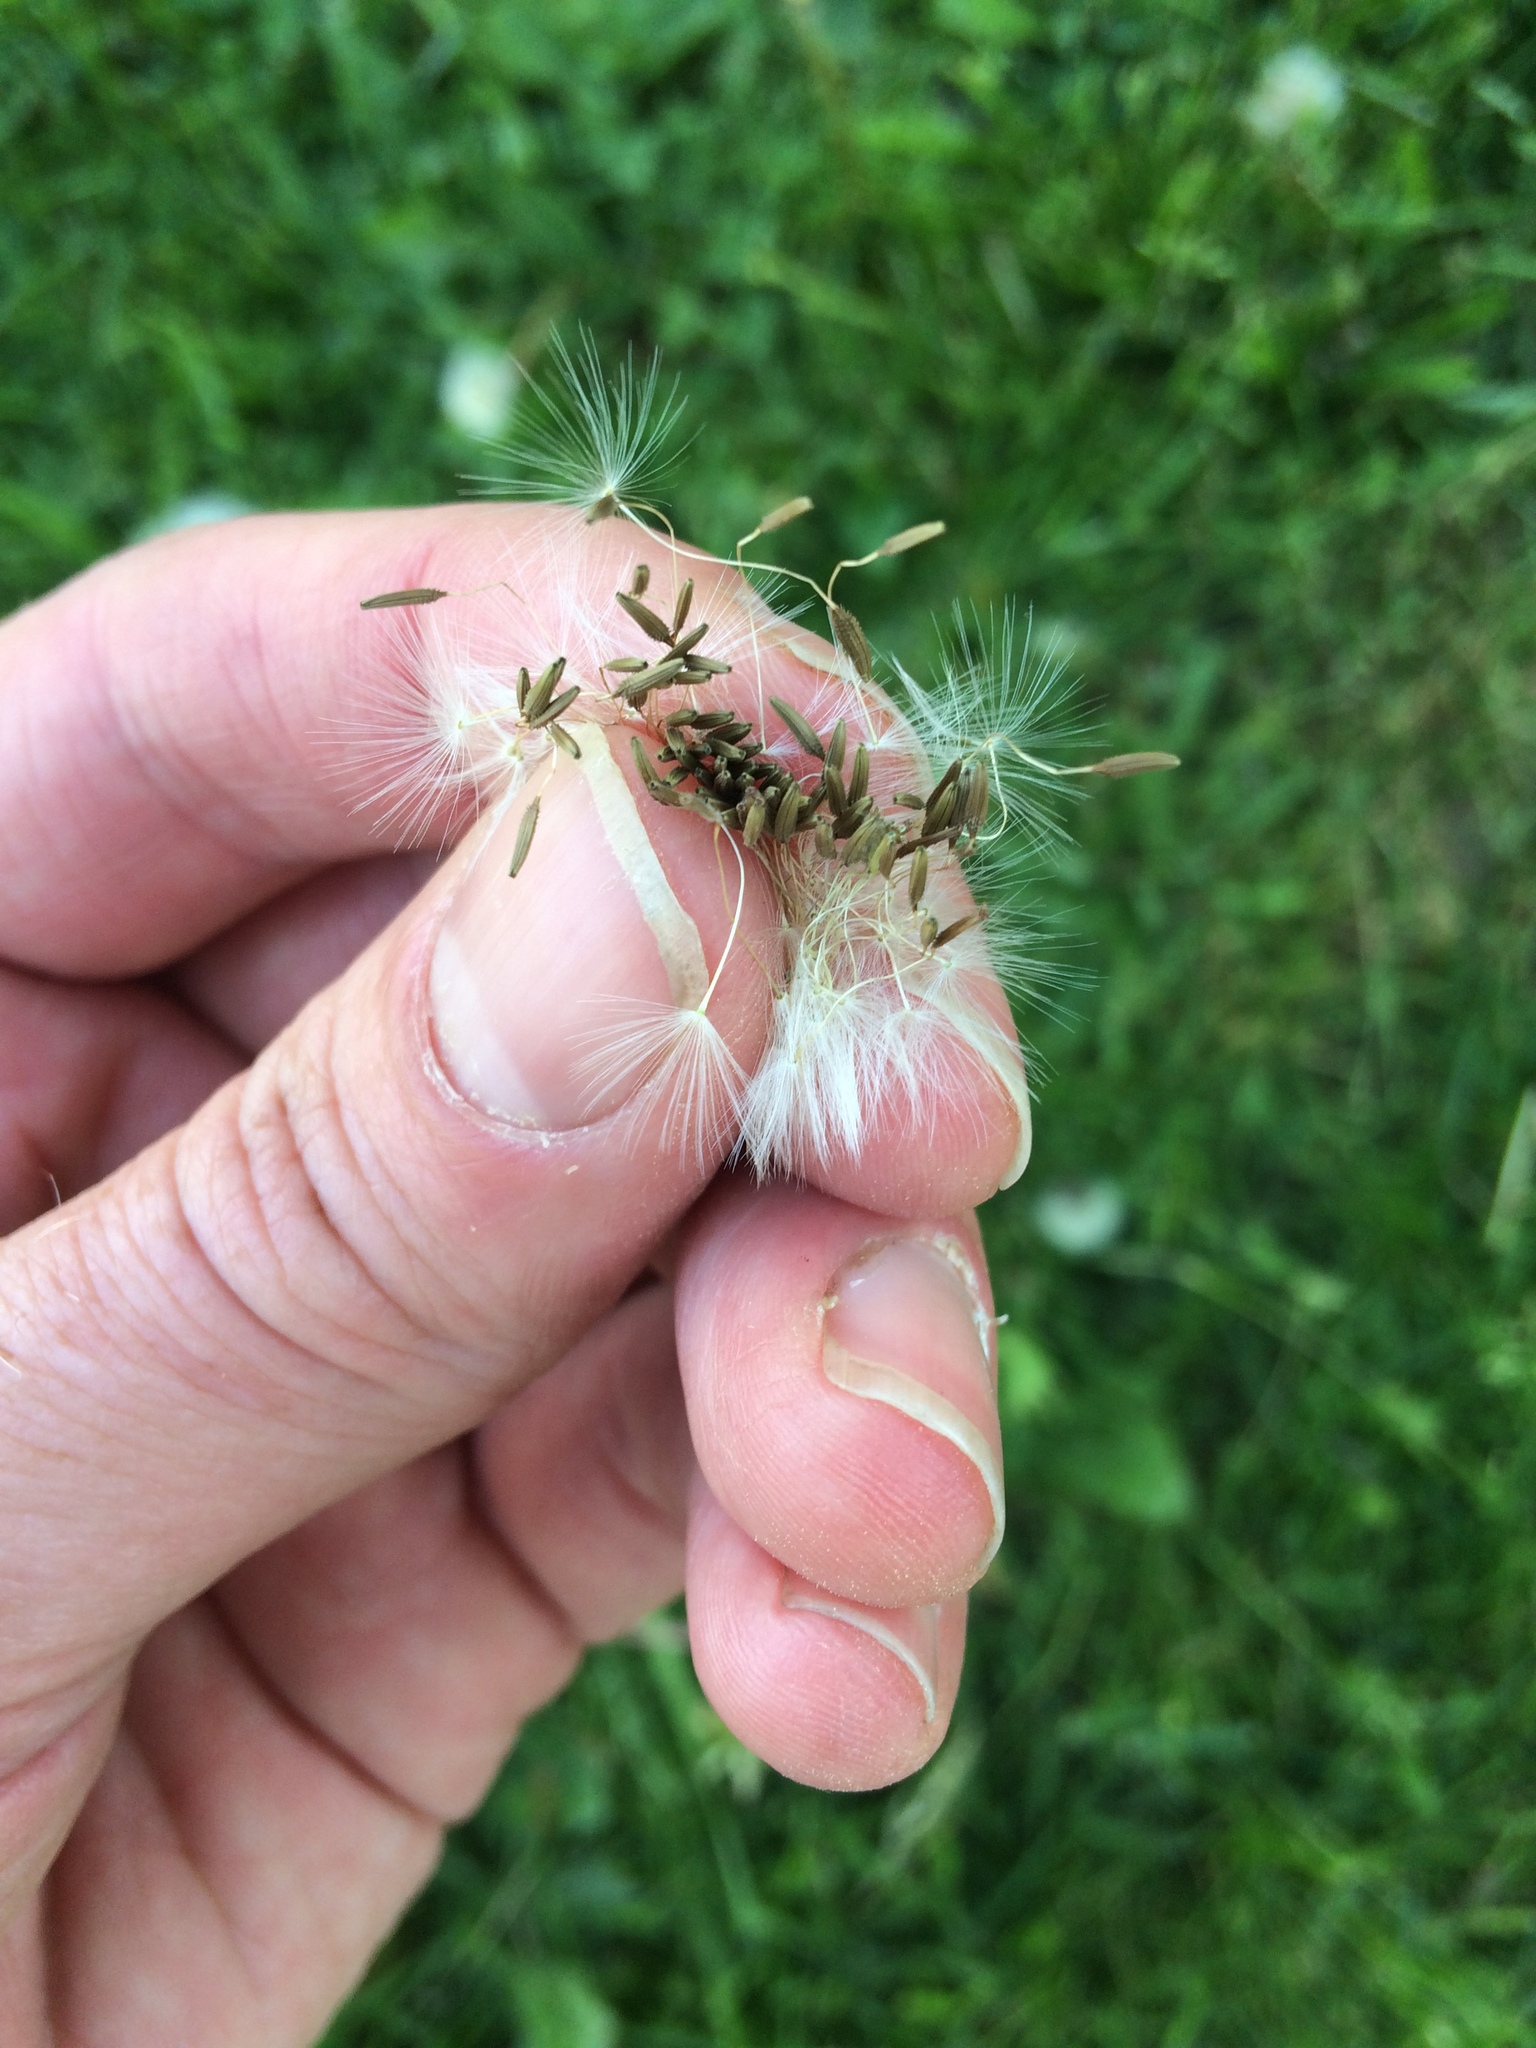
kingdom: Plantae
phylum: Tracheophyta
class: Magnoliopsida
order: Asterales
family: Asteraceae
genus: Taraxacum
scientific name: Taraxacum officinale
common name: Common dandelion
